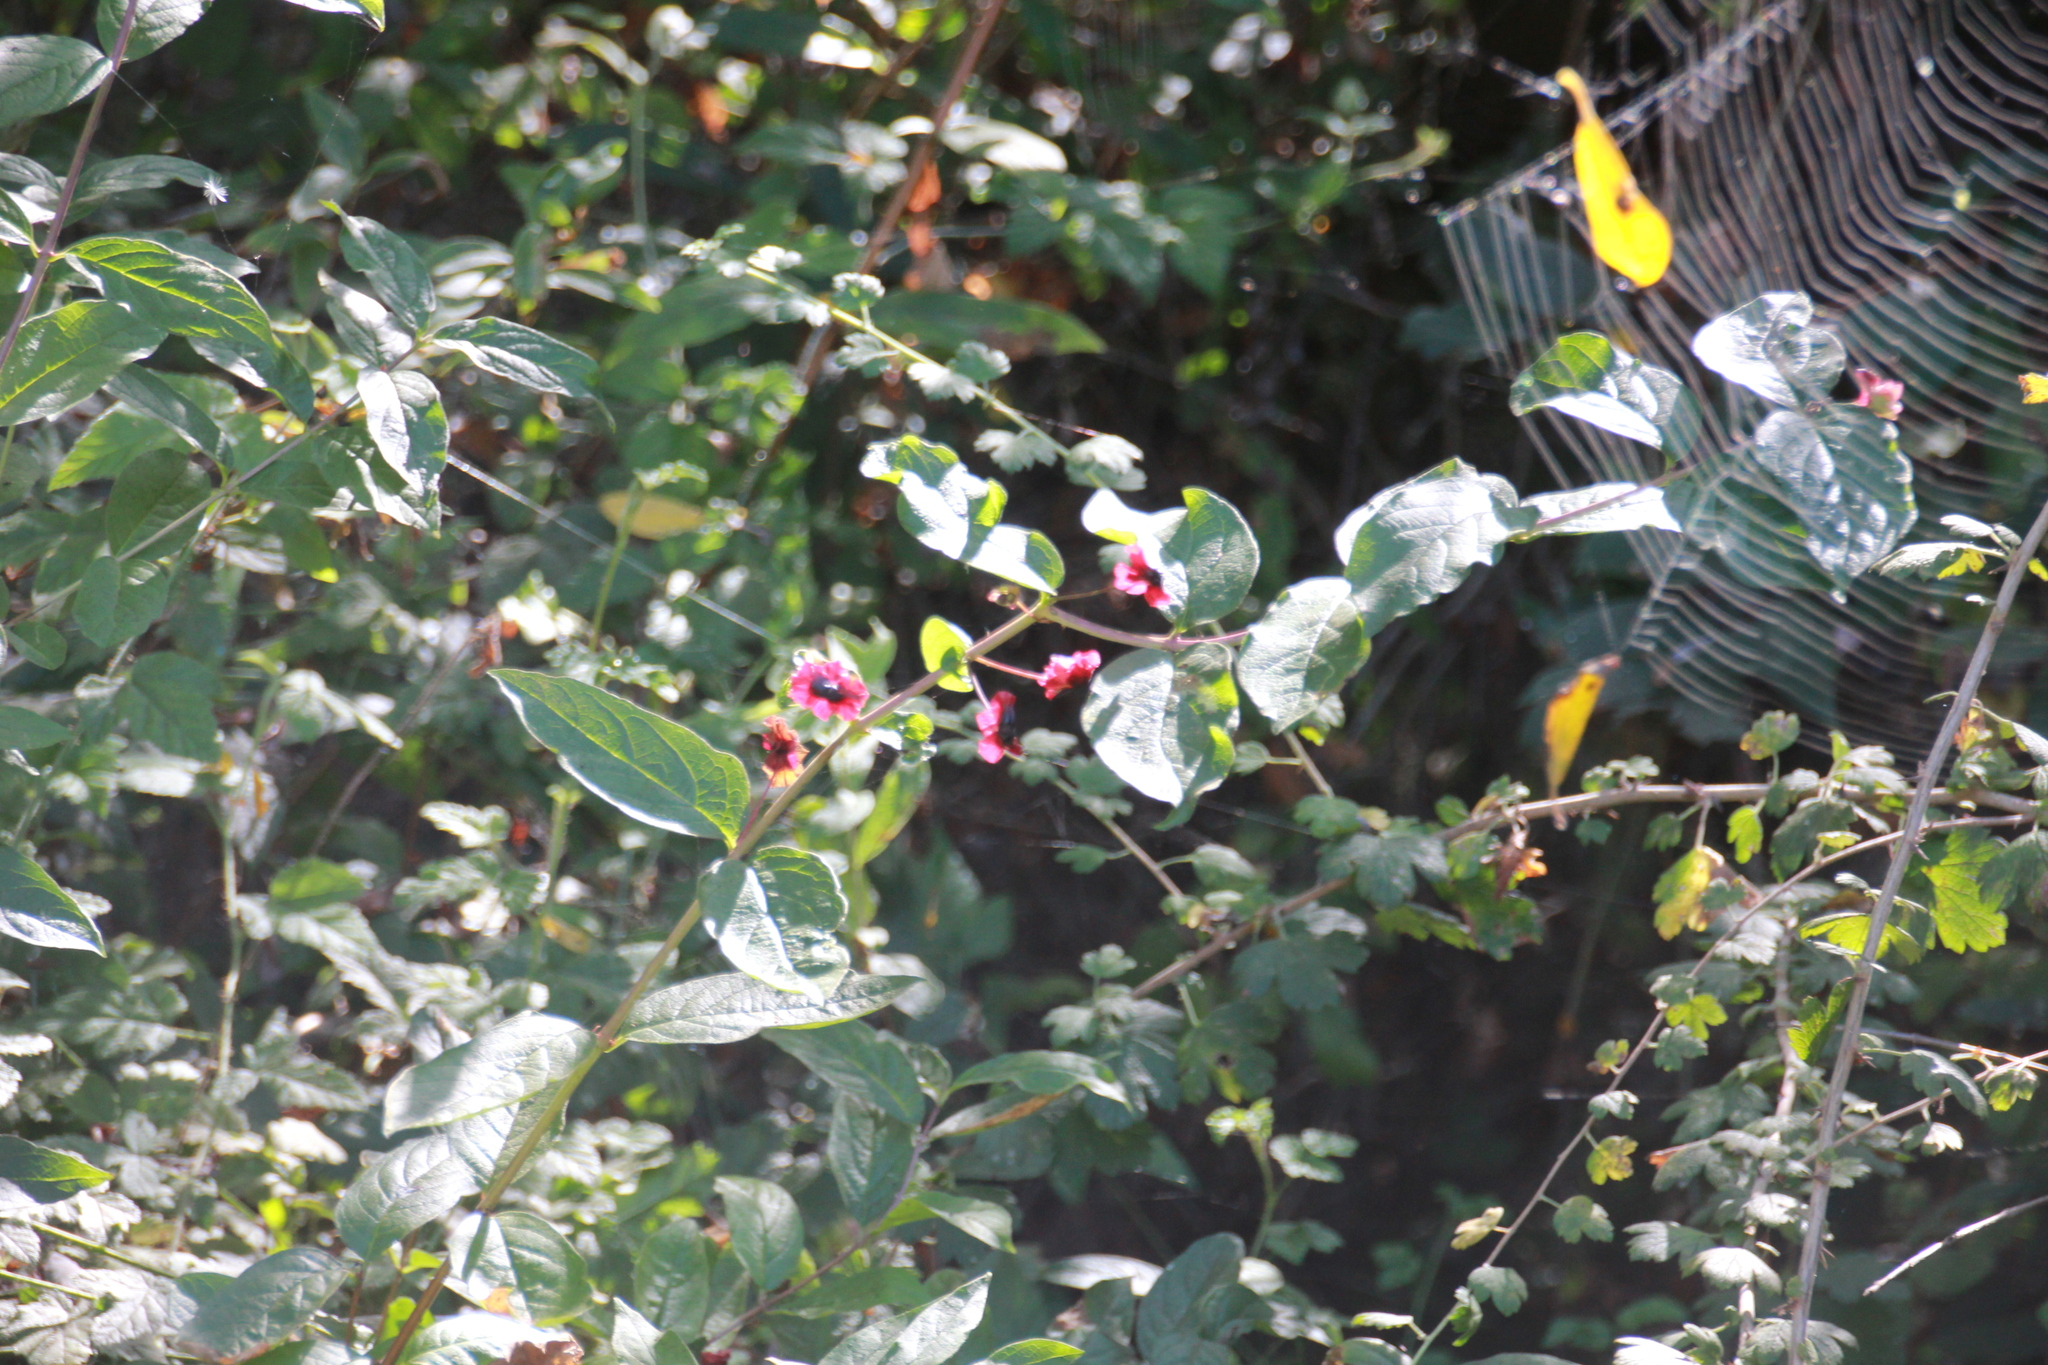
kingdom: Plantae
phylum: Tracheophyta
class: Magnoliopsida
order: Dipsacales
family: Caprifoliaceae
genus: Lonicera
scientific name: Lonicera involucrata
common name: Californian honeysuckle
